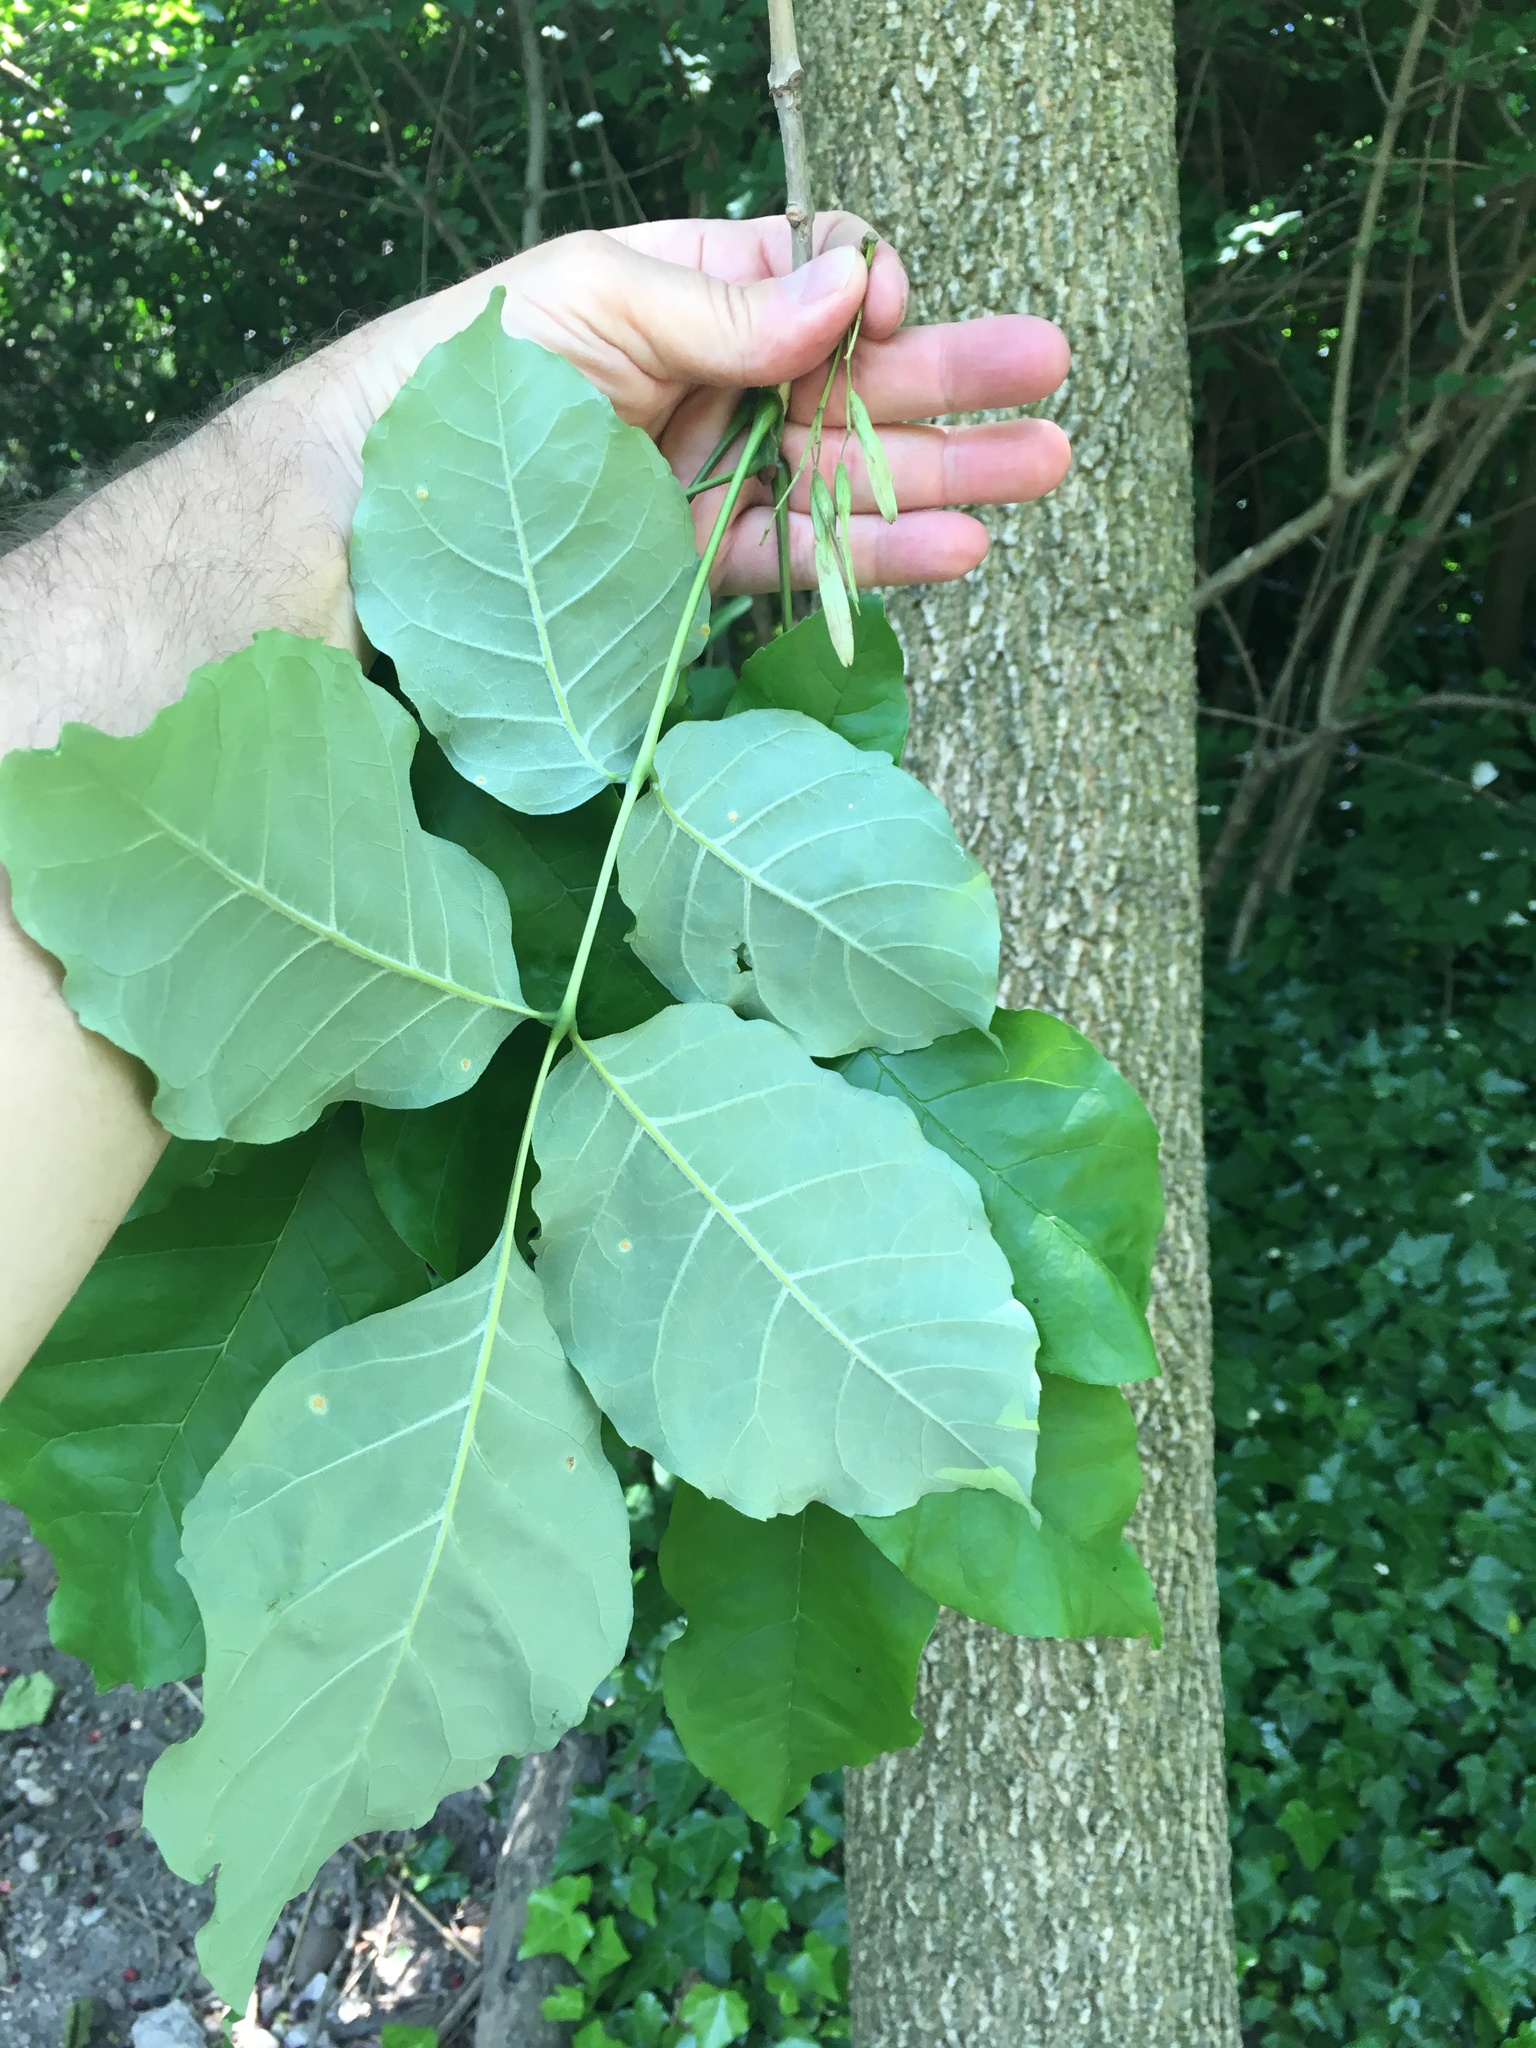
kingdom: Plantae
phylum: Tracheophyta
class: Magnoliopsida
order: Lamiales
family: Oleaceae
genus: Fraxinus
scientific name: Fraxinus americana
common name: White ash
